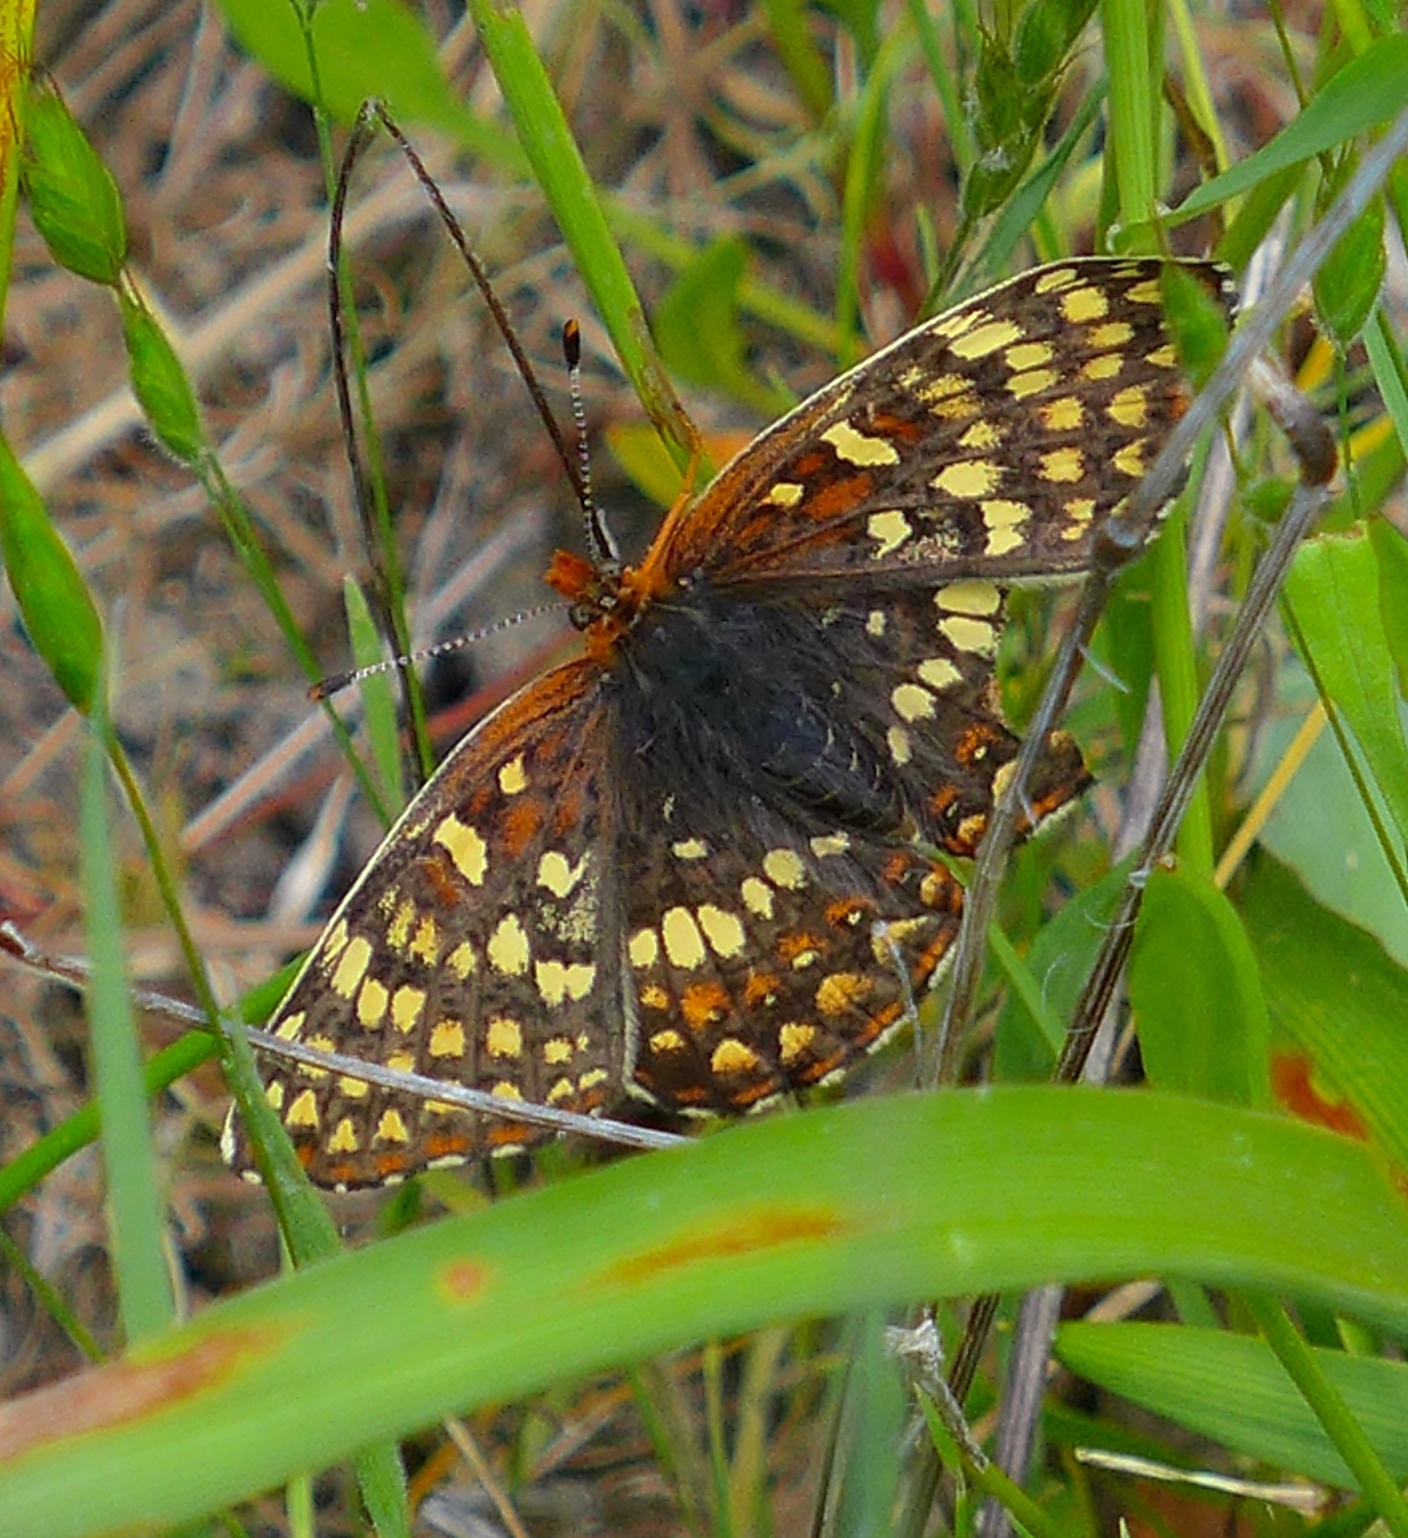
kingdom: Animalia
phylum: Arthropoda
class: Insecta
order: Lepidoptera
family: Nymphalidae
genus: Chlosyne
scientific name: Chlosyne palla
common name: Northern checkerspot
